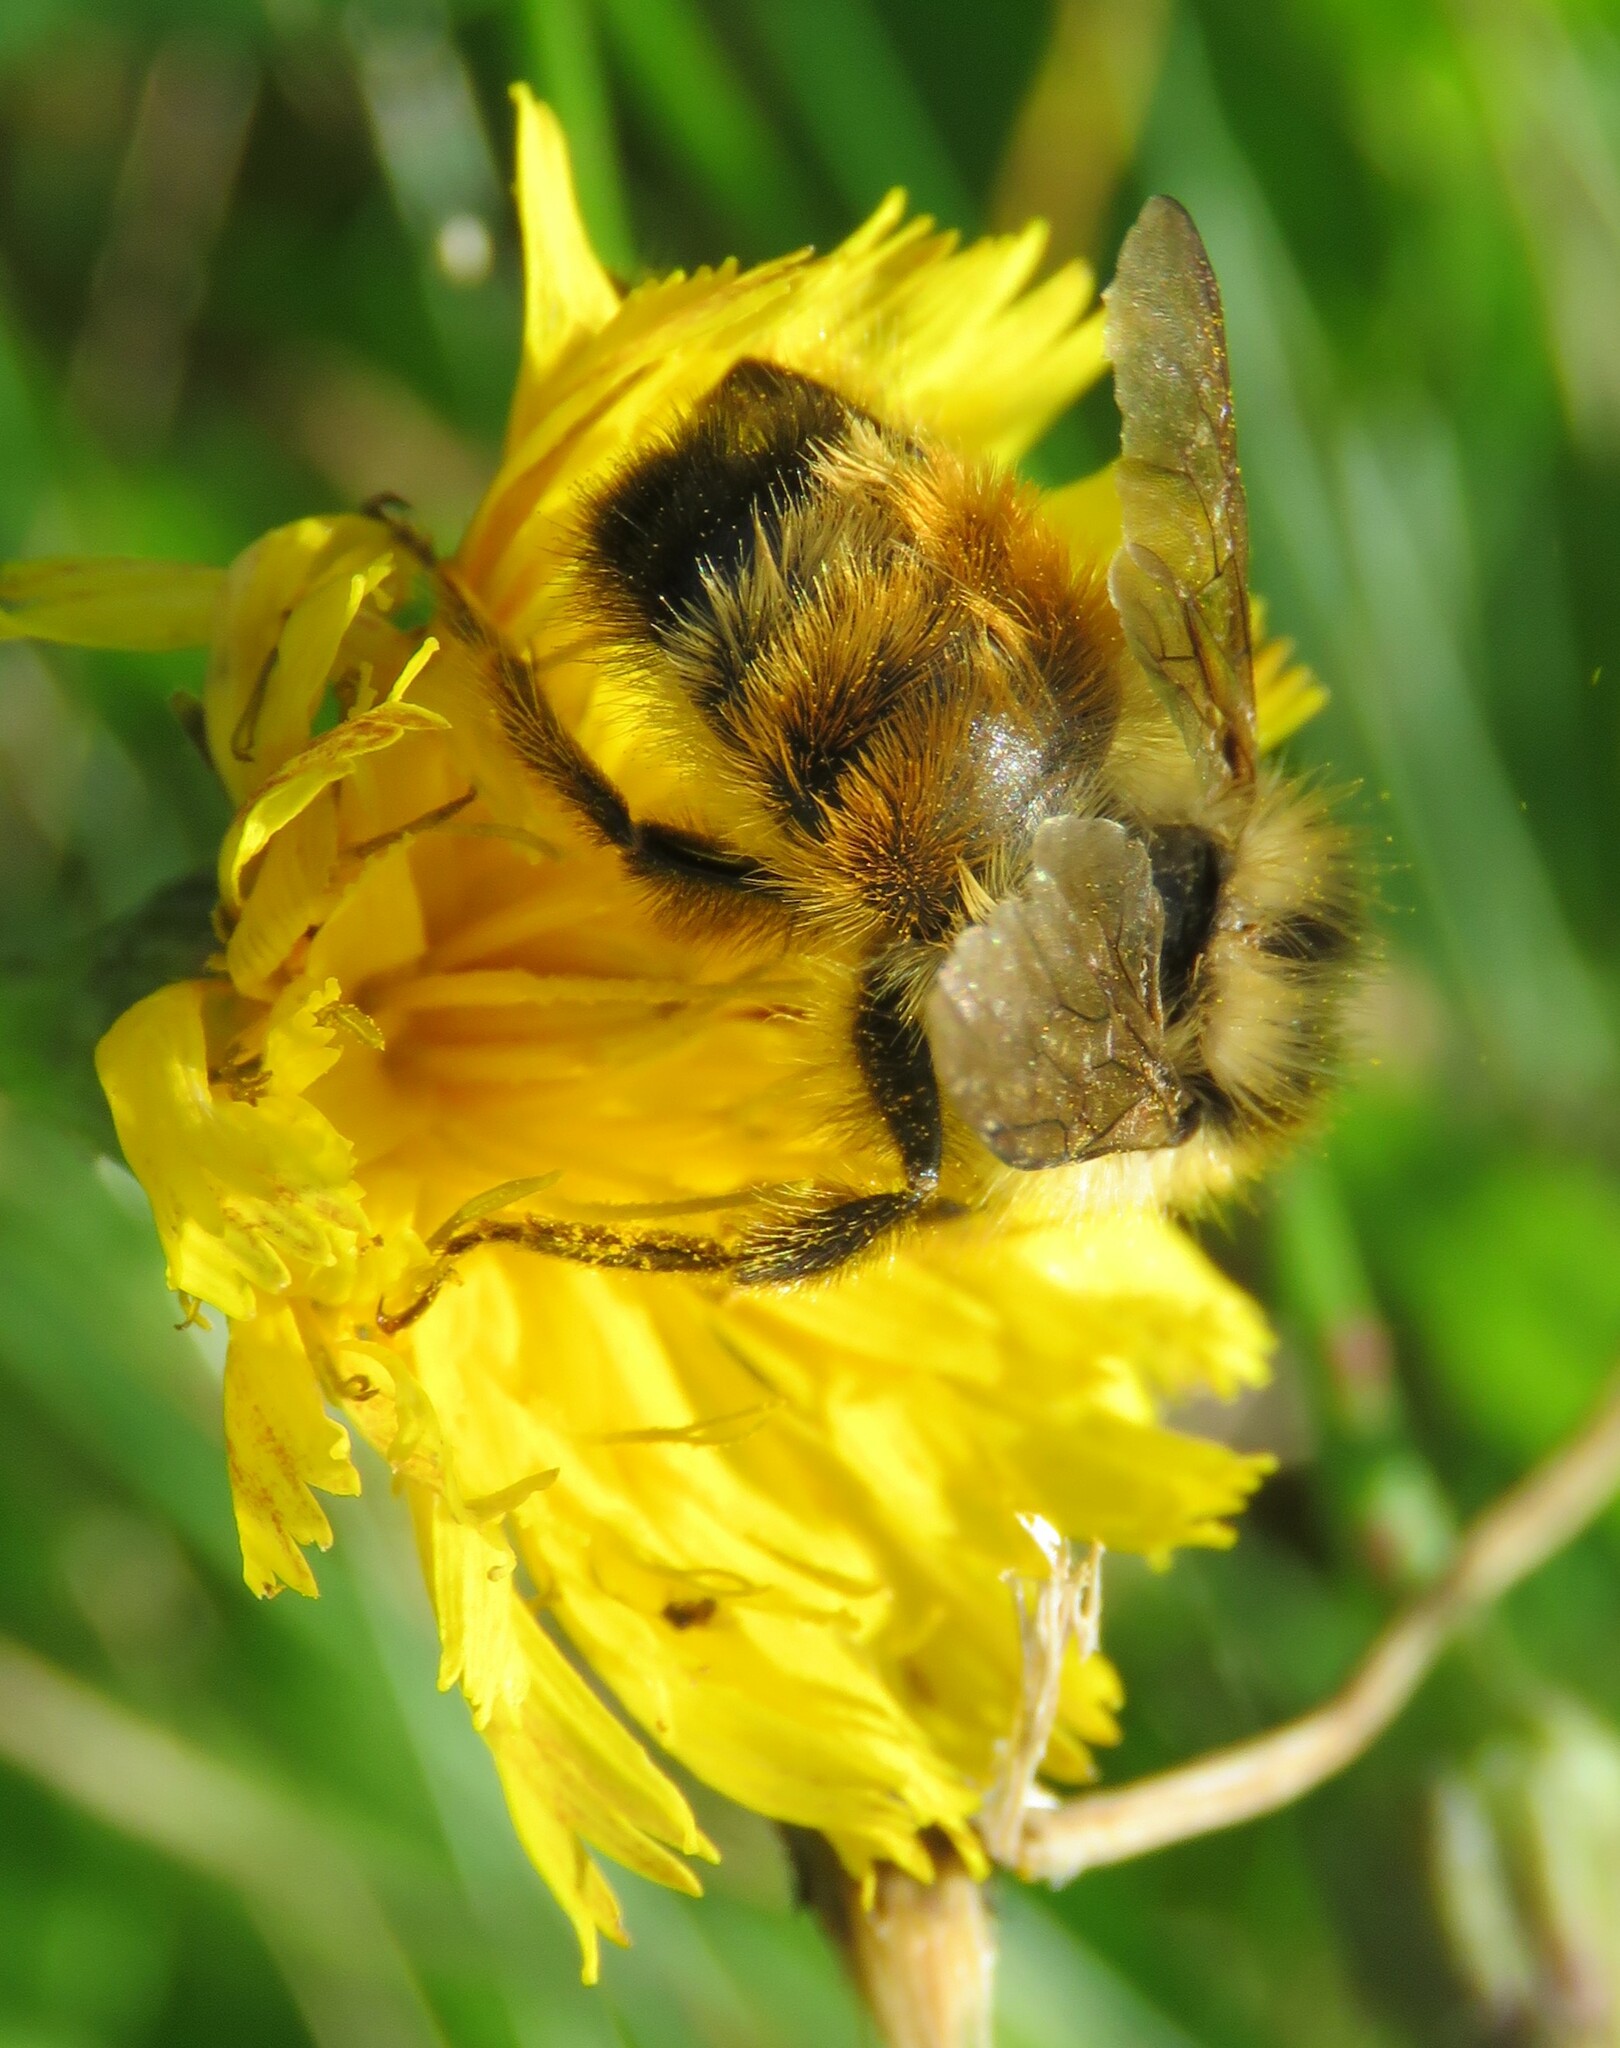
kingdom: Animalia
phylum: Arthropoda
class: Insecta
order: Hymenoptera
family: Apidae
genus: Bombus
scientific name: Bombus ternarius
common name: Tri-colored bumble bee
